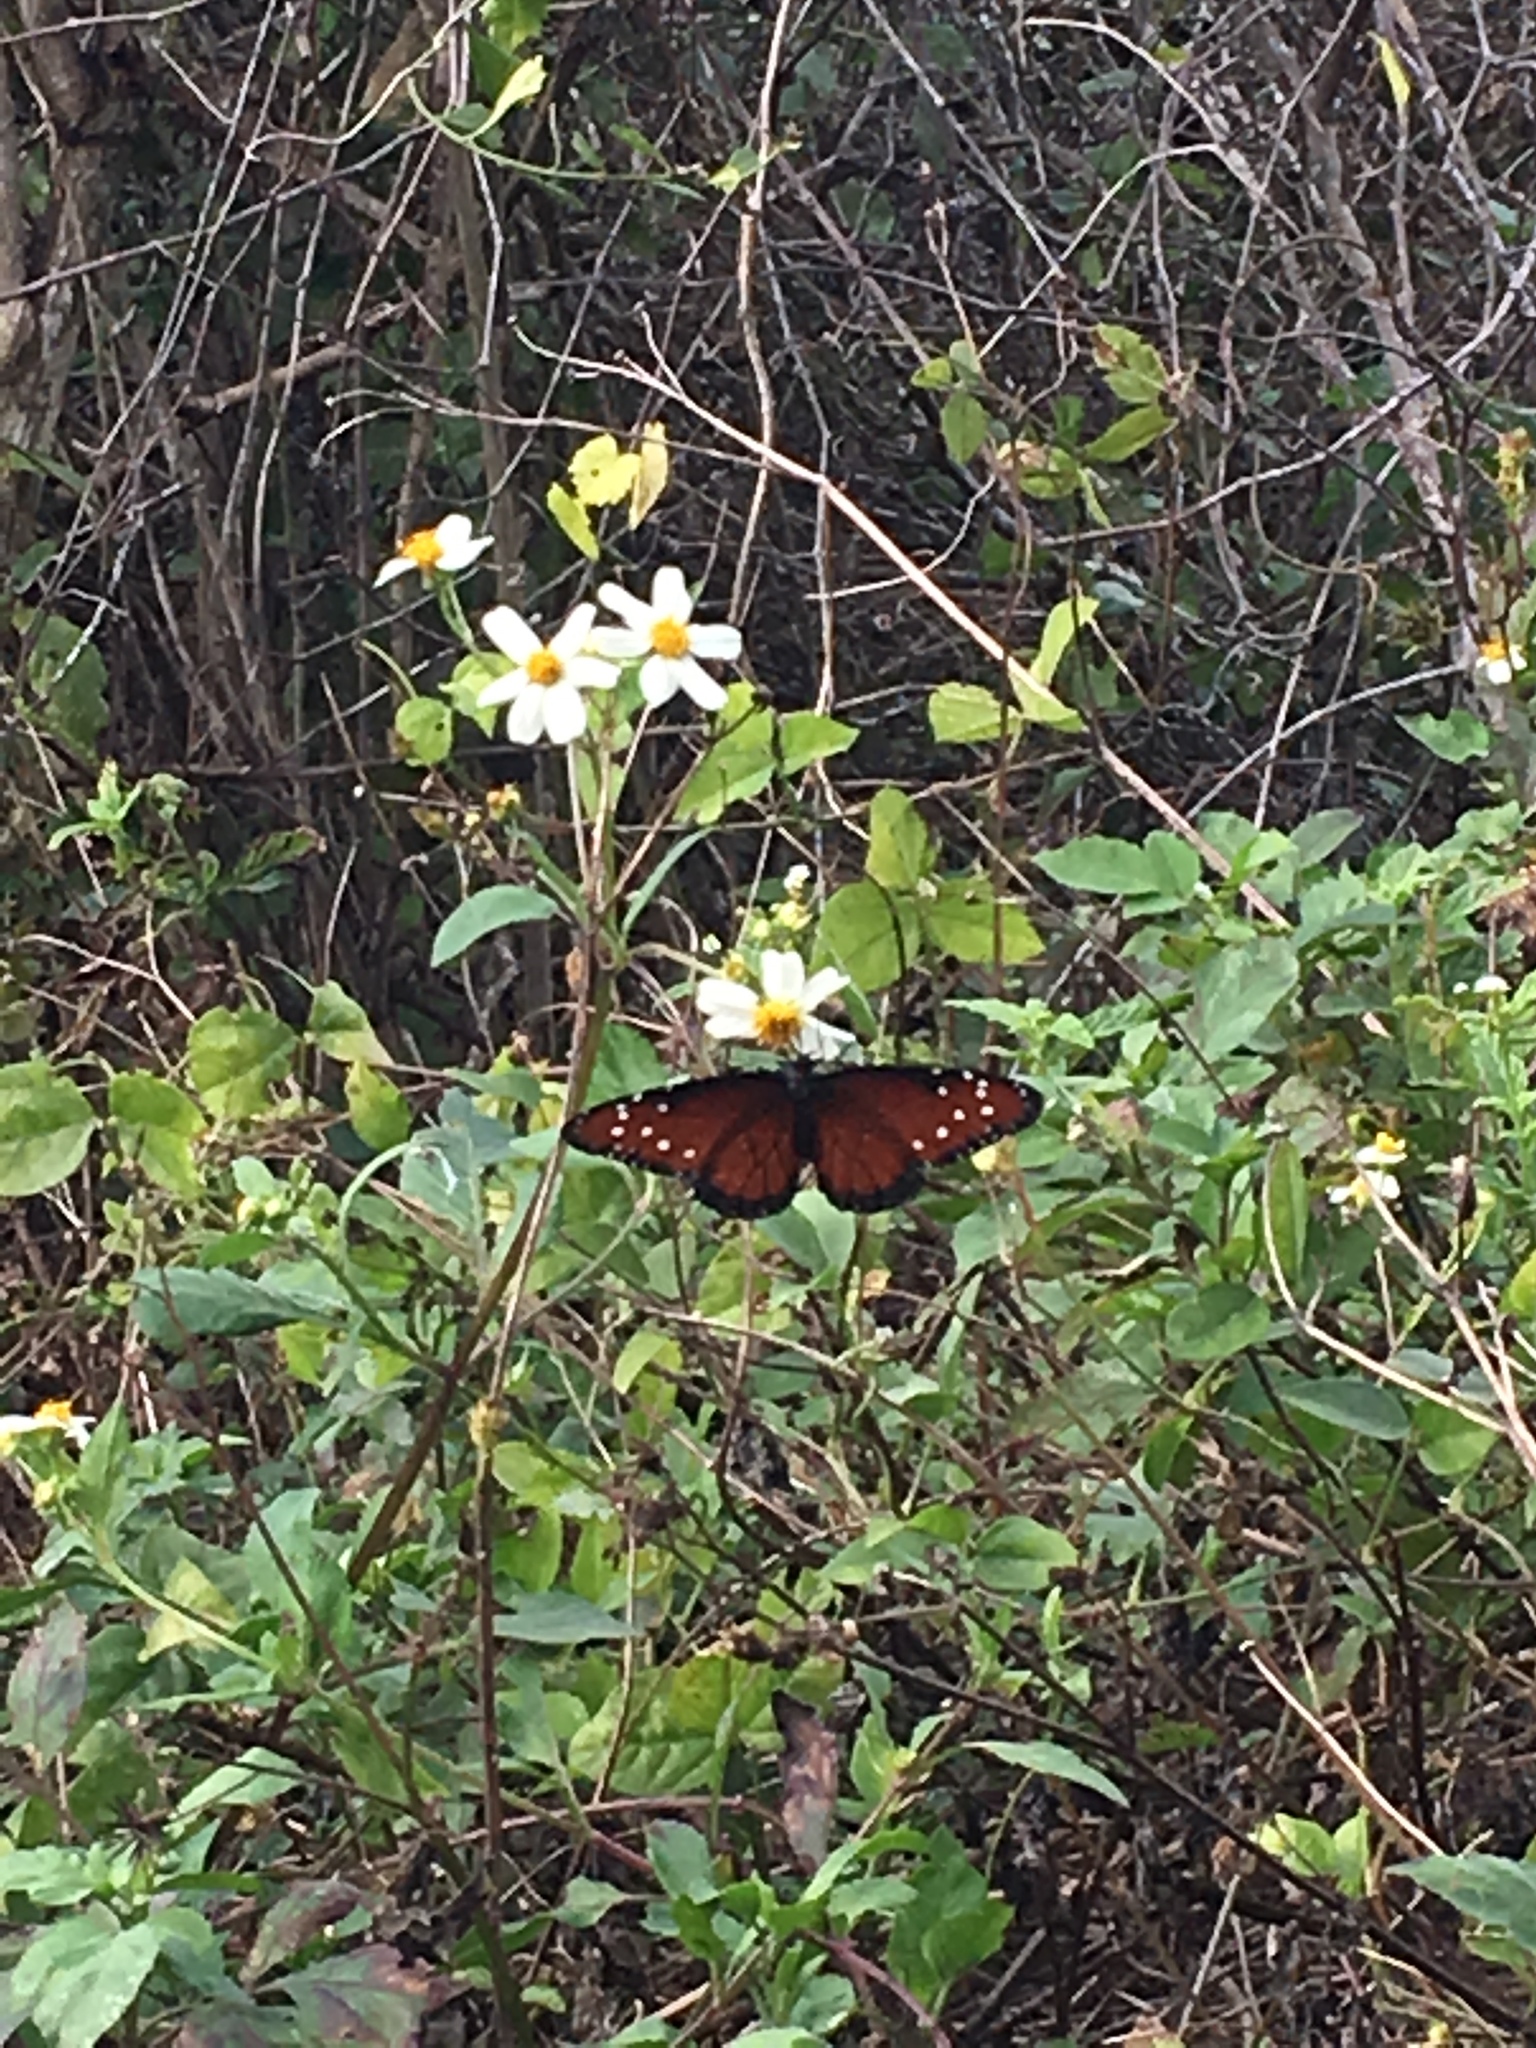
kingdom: Animalia
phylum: Arthropoda
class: Insecta
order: Lepidoptera
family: Nymphalidae
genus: Danaus
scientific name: Danaus gilippus
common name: Queen
